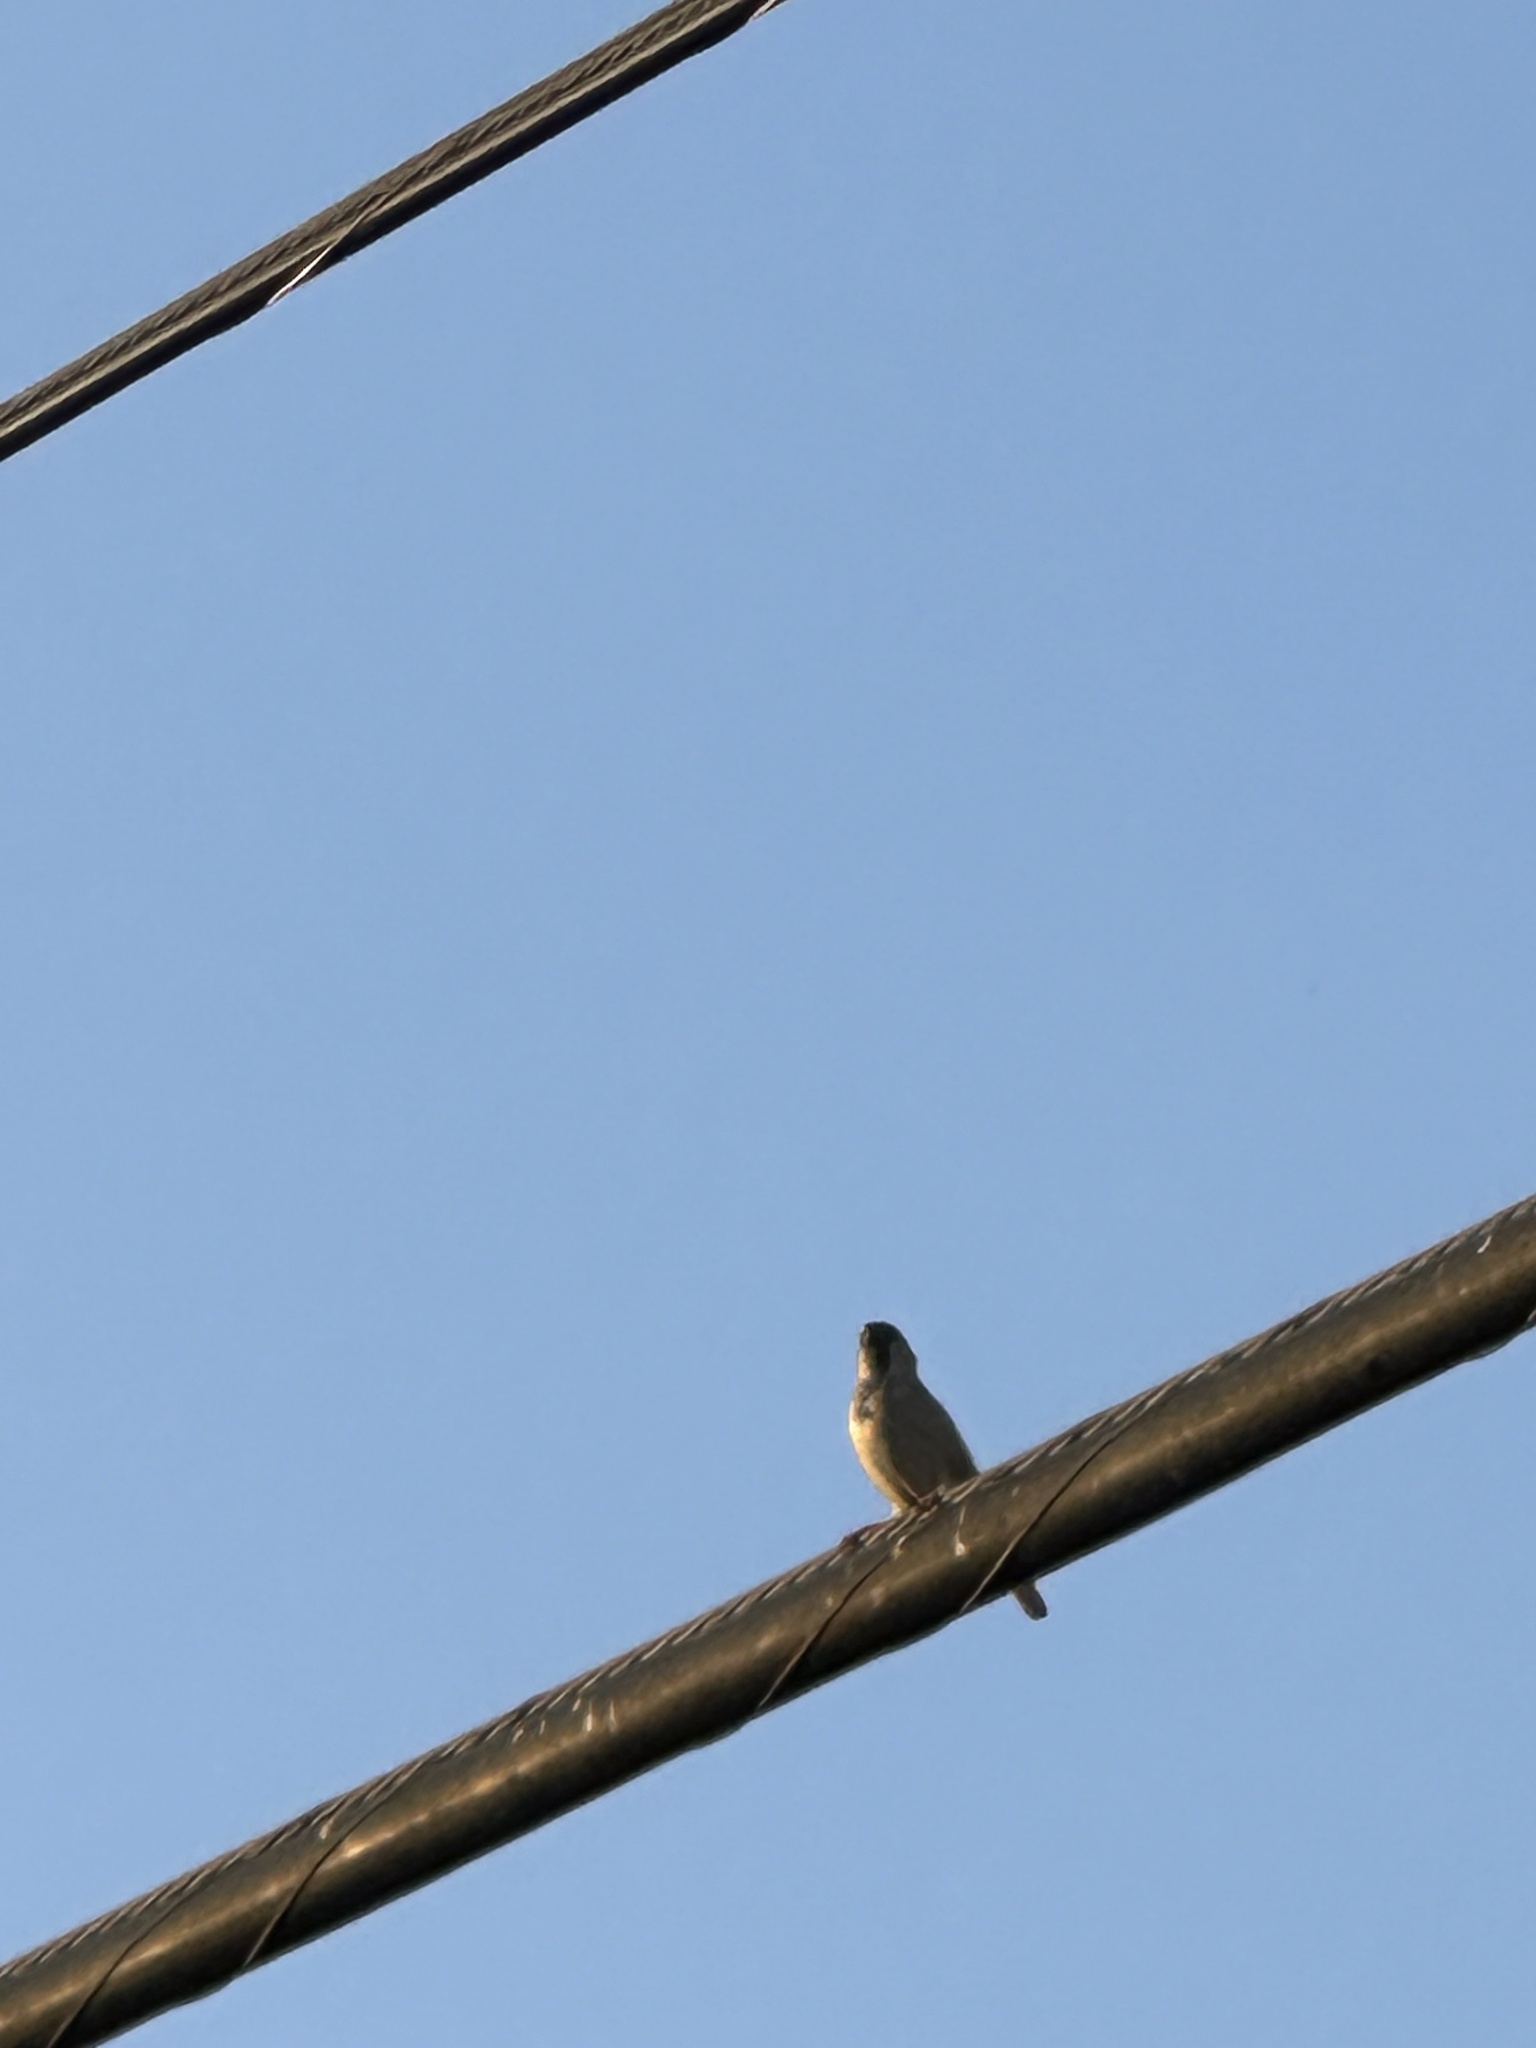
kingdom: Animalia
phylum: Chordata
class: Aves
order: Passeriformes
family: Passeridae
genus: Passer
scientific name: Passer domesticus
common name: House sparrow
